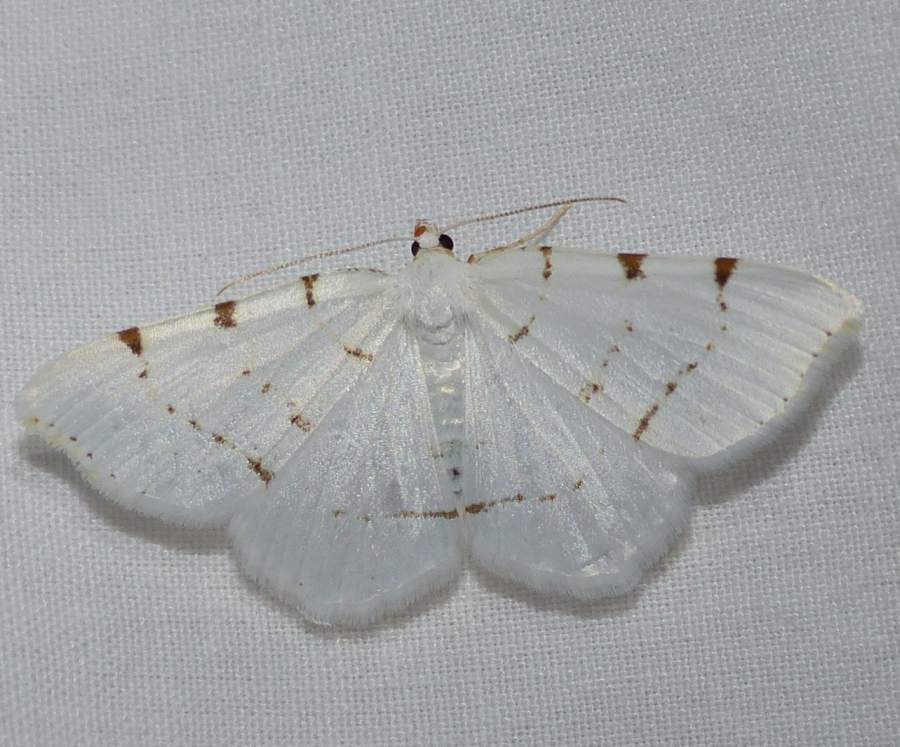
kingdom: Animalia
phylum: Arthropoda
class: Insecta
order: Lepidoptera
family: Geometridae
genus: Macaria
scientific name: Macaria pustularia
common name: Lesser maple spanworm moth
